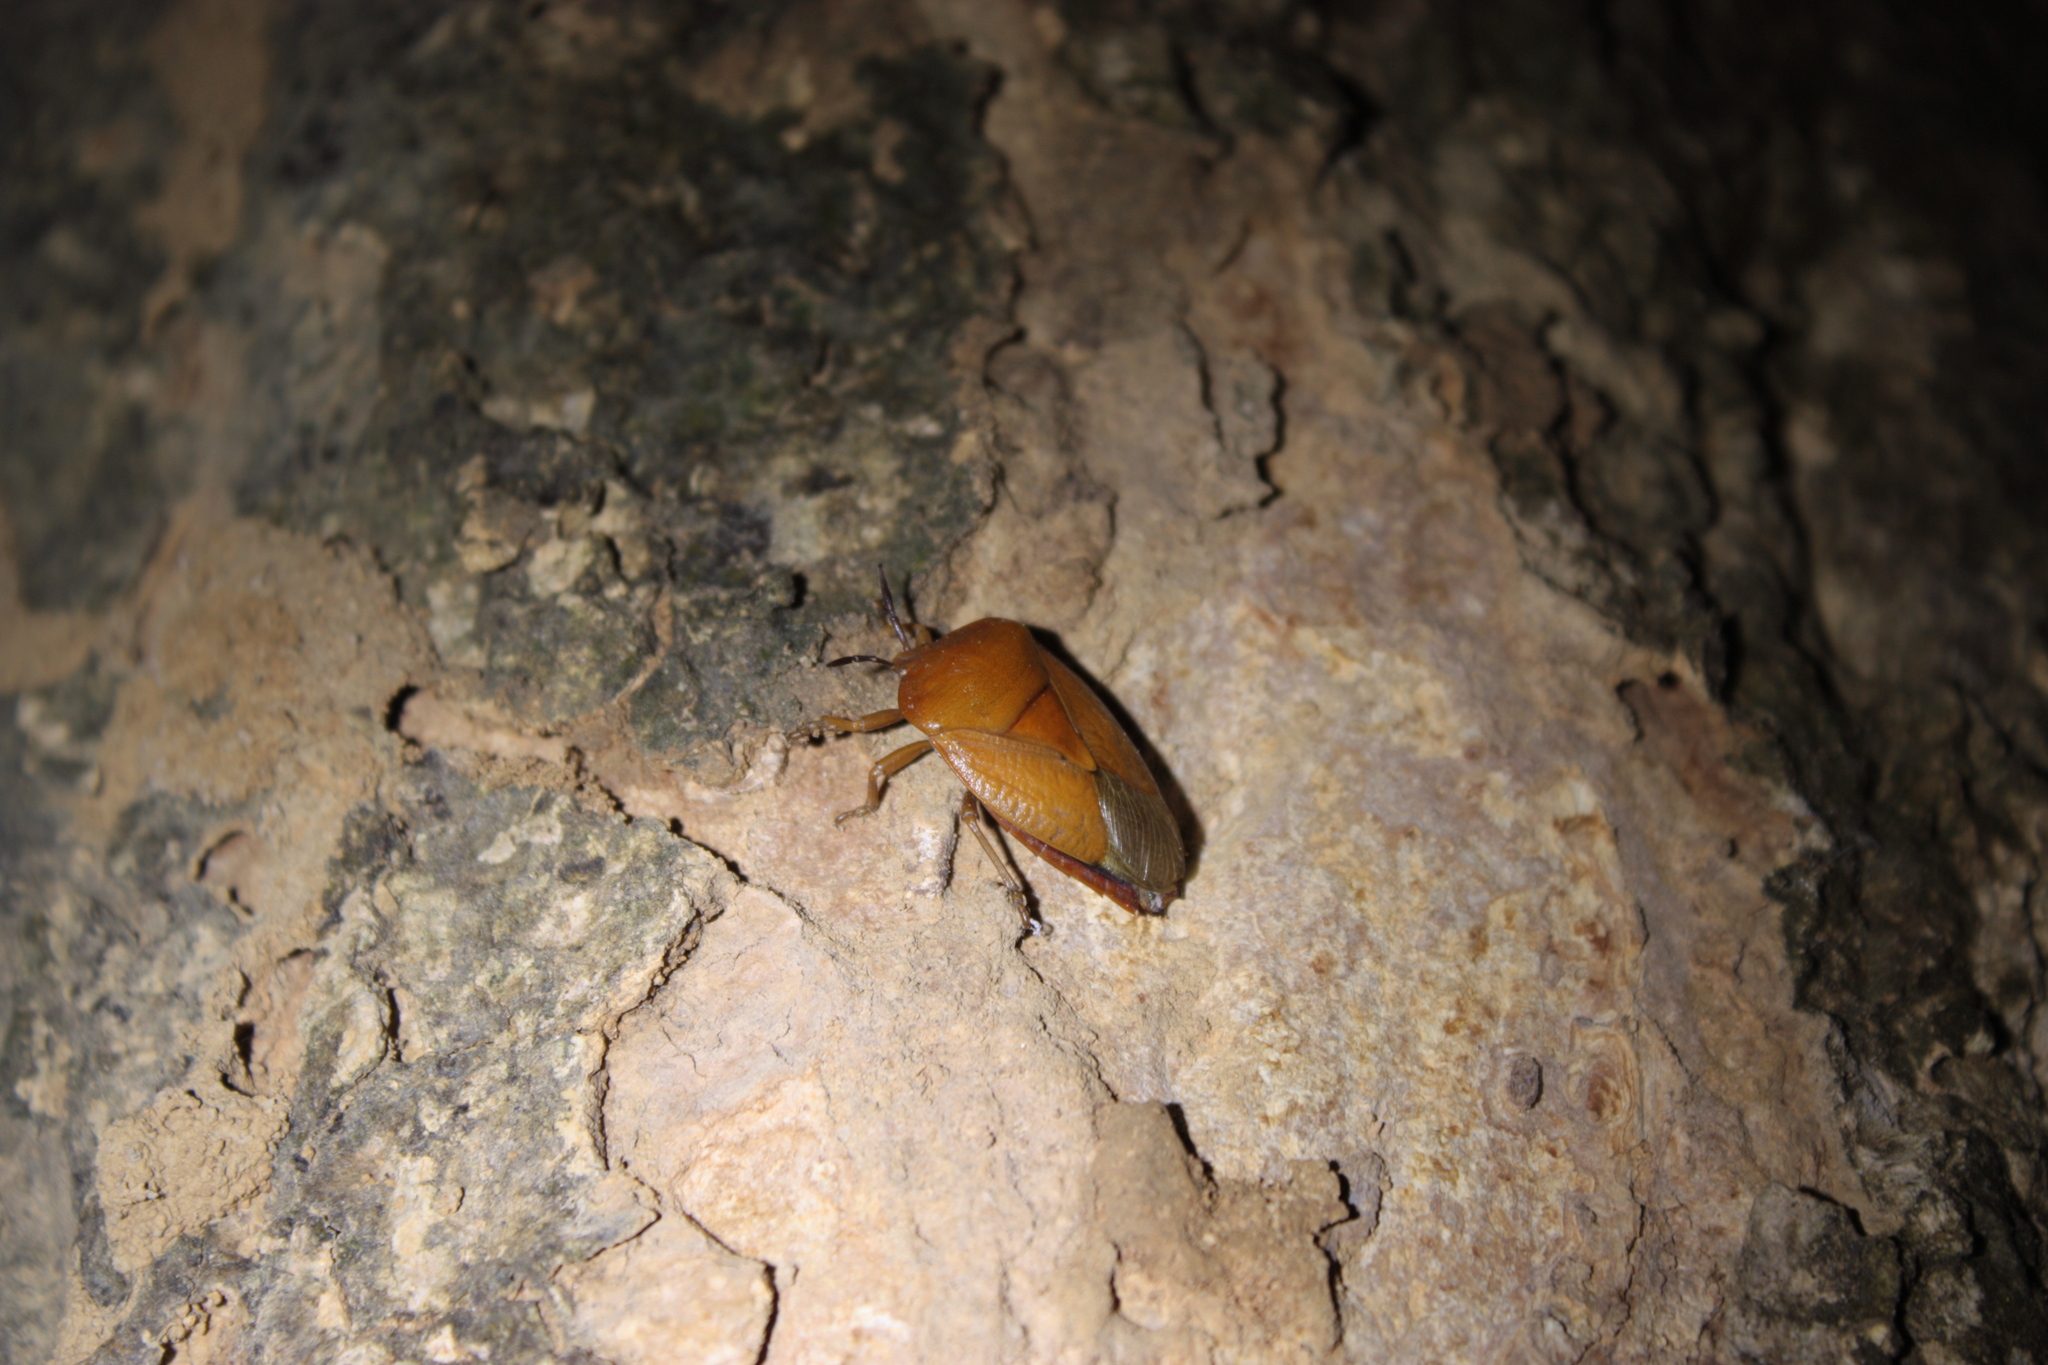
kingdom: Animalia
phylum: Arthropoda
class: Insecta
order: Hemiptera
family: Tessaratomidae
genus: Tessaratoma
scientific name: Tessaratoma papillosa
